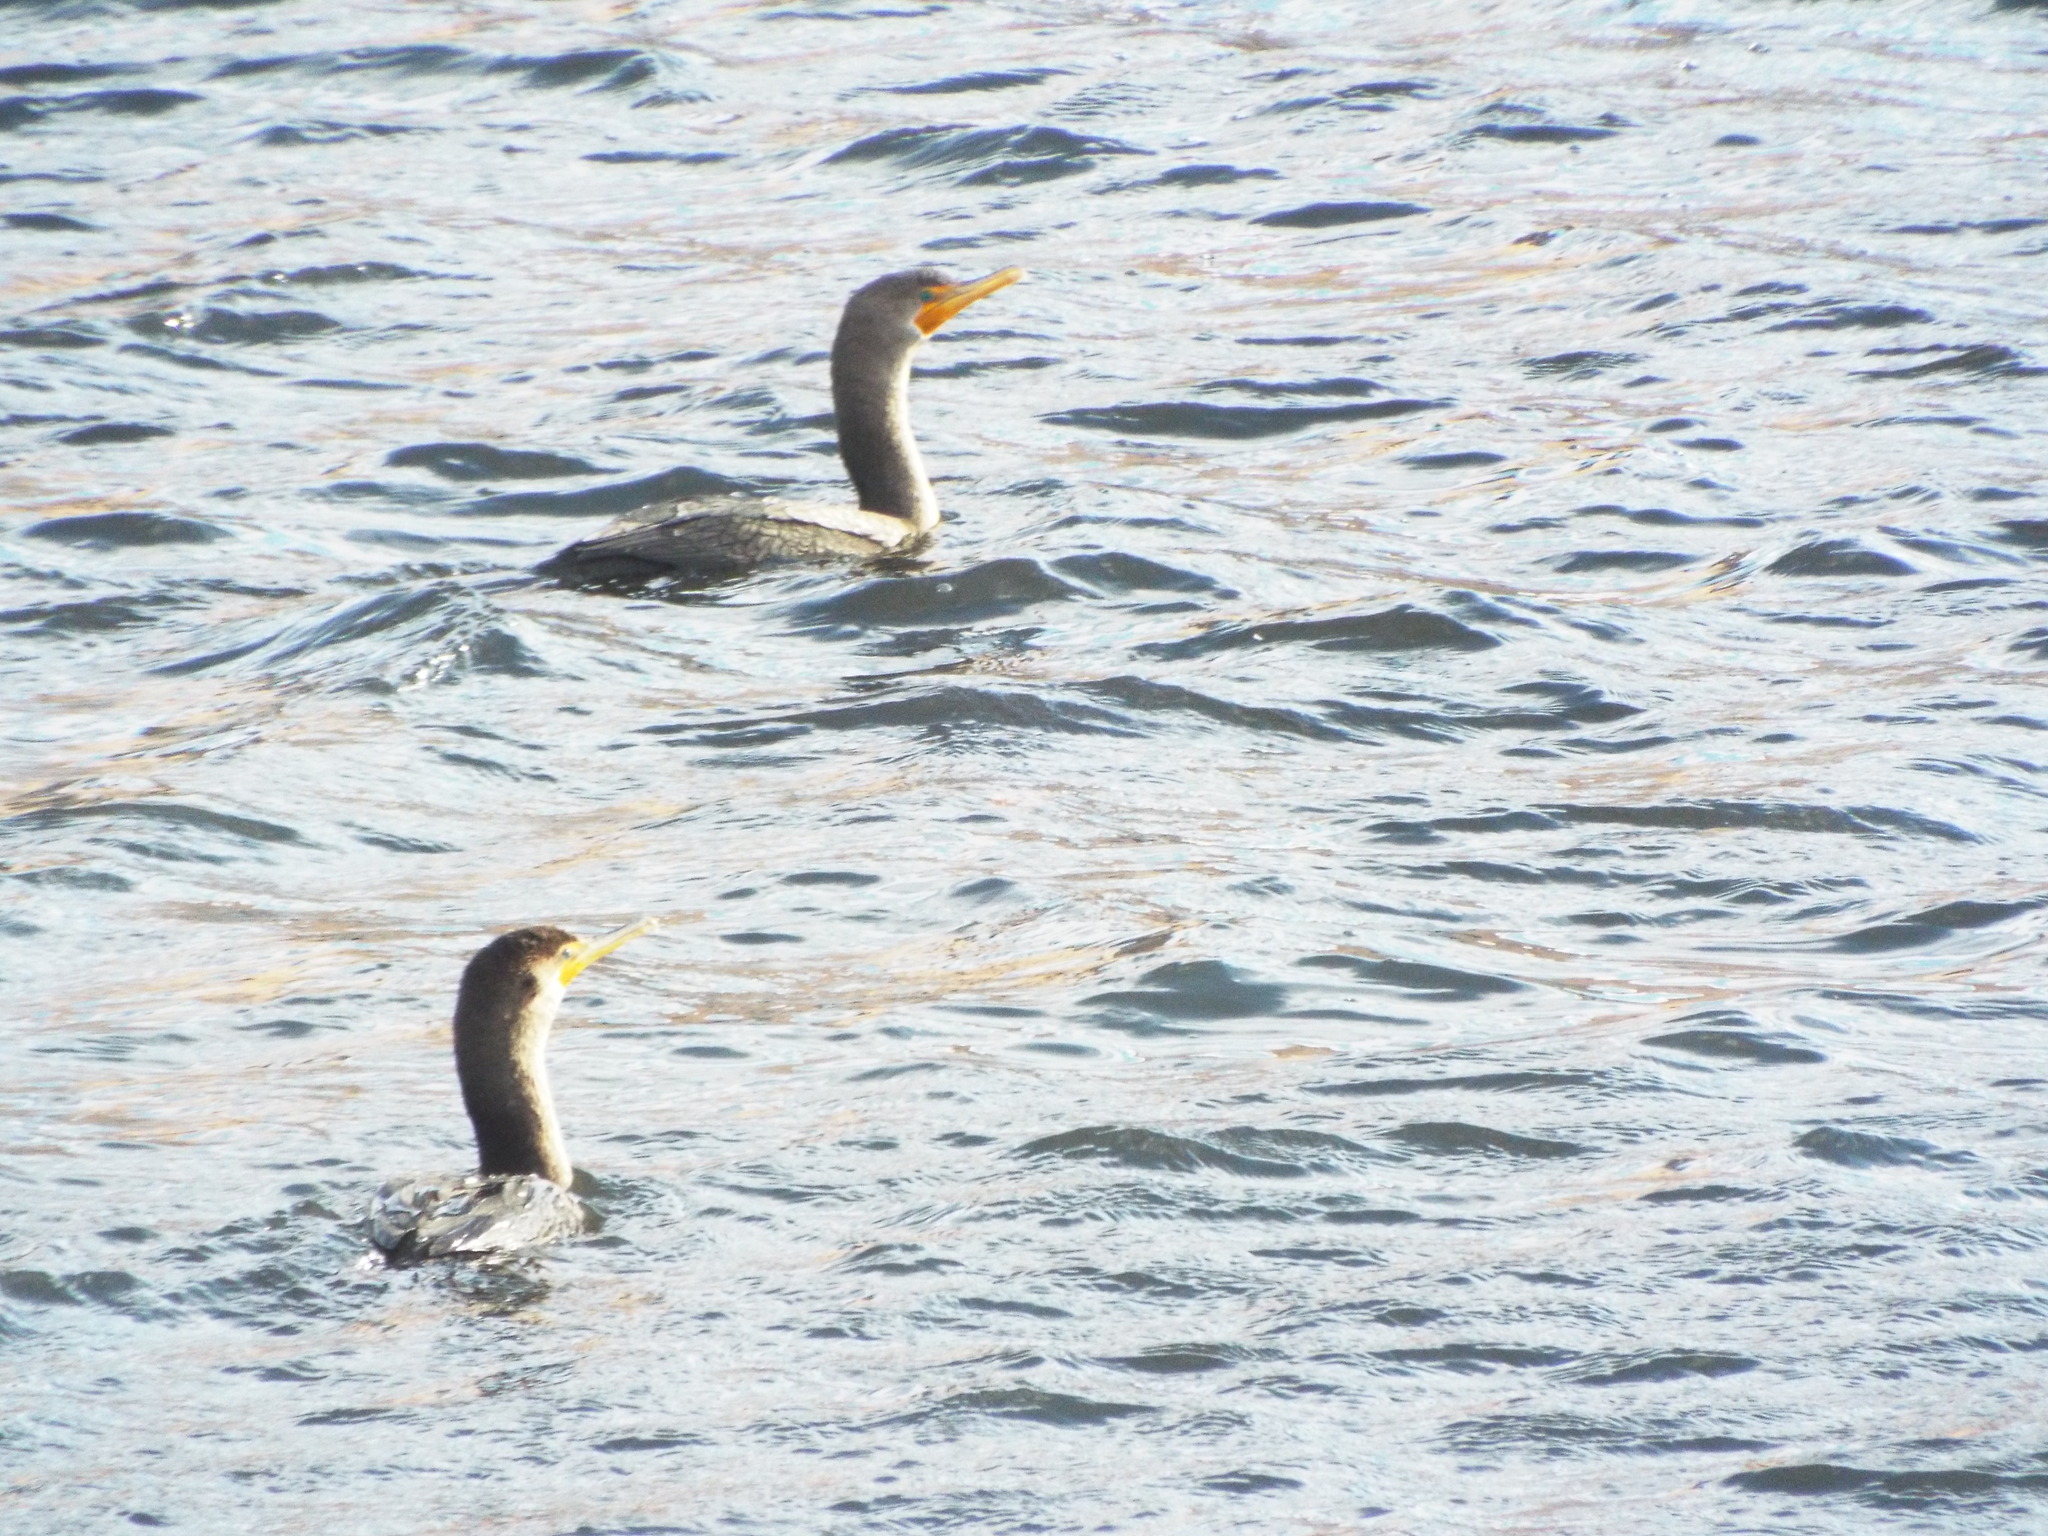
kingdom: Animalia
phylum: Chordata
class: Aves
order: Suliformes
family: Phalacrocoracidae
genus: Phalacrocorax
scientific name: Phalacrocorax auritus
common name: Double-crested cormorant
